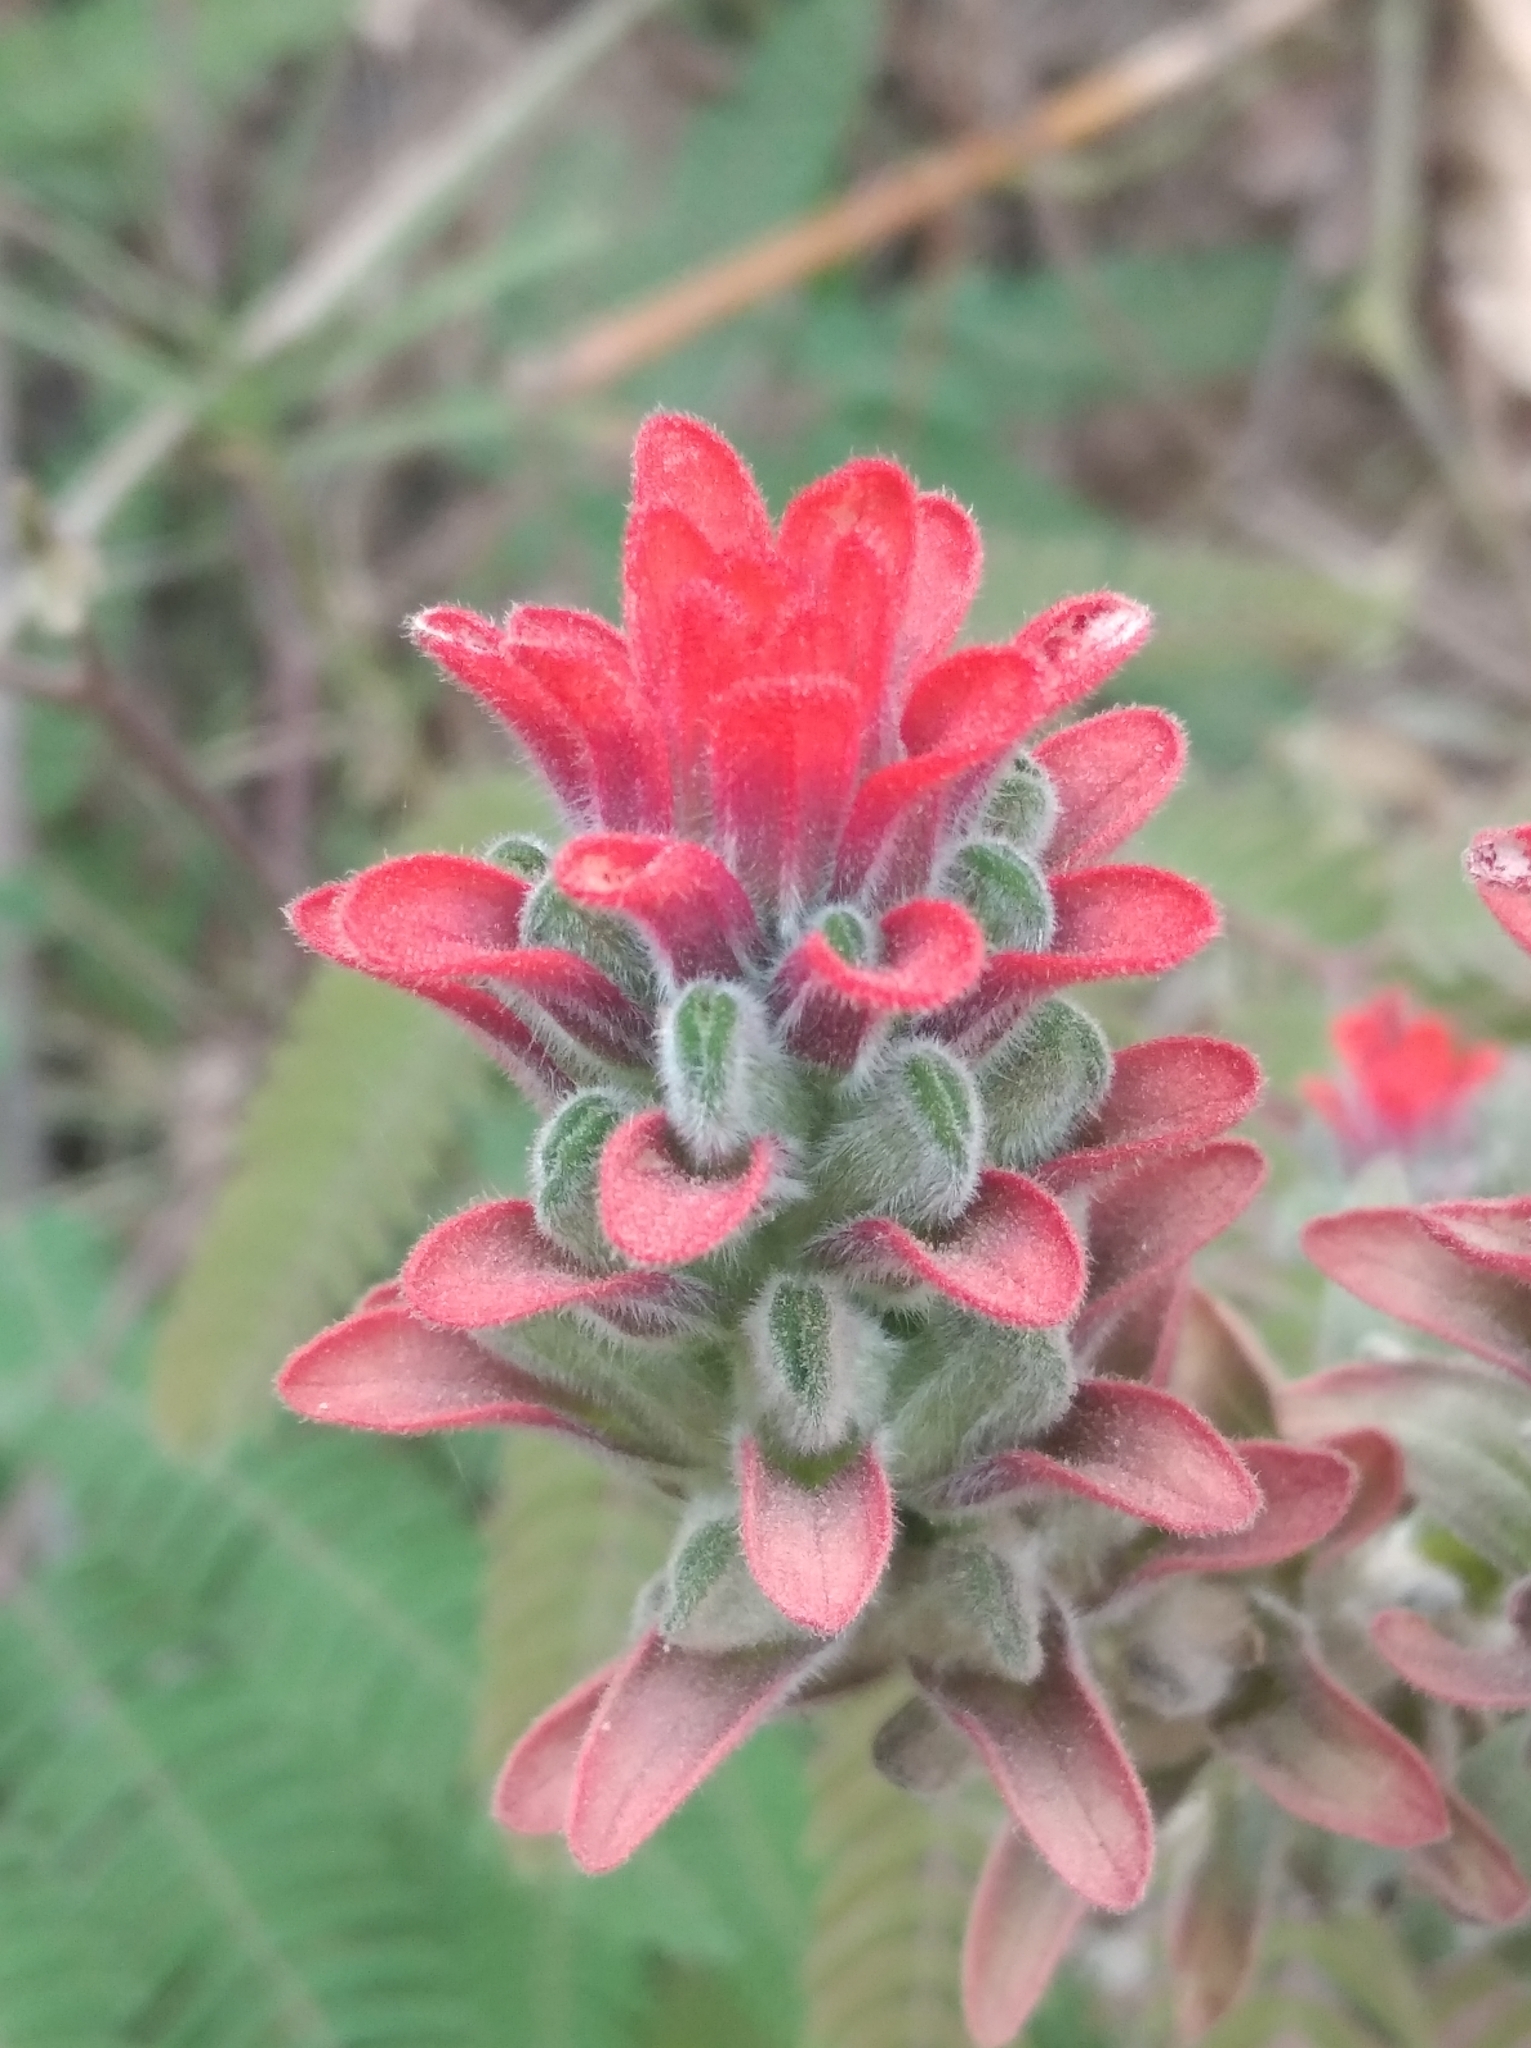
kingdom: Plantae
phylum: Tracheophyta
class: Magnoliopsida
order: Lamiales
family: Orobanchaceae
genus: Castilleja
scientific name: Castilleja arvensis
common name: Indian paintbrush
